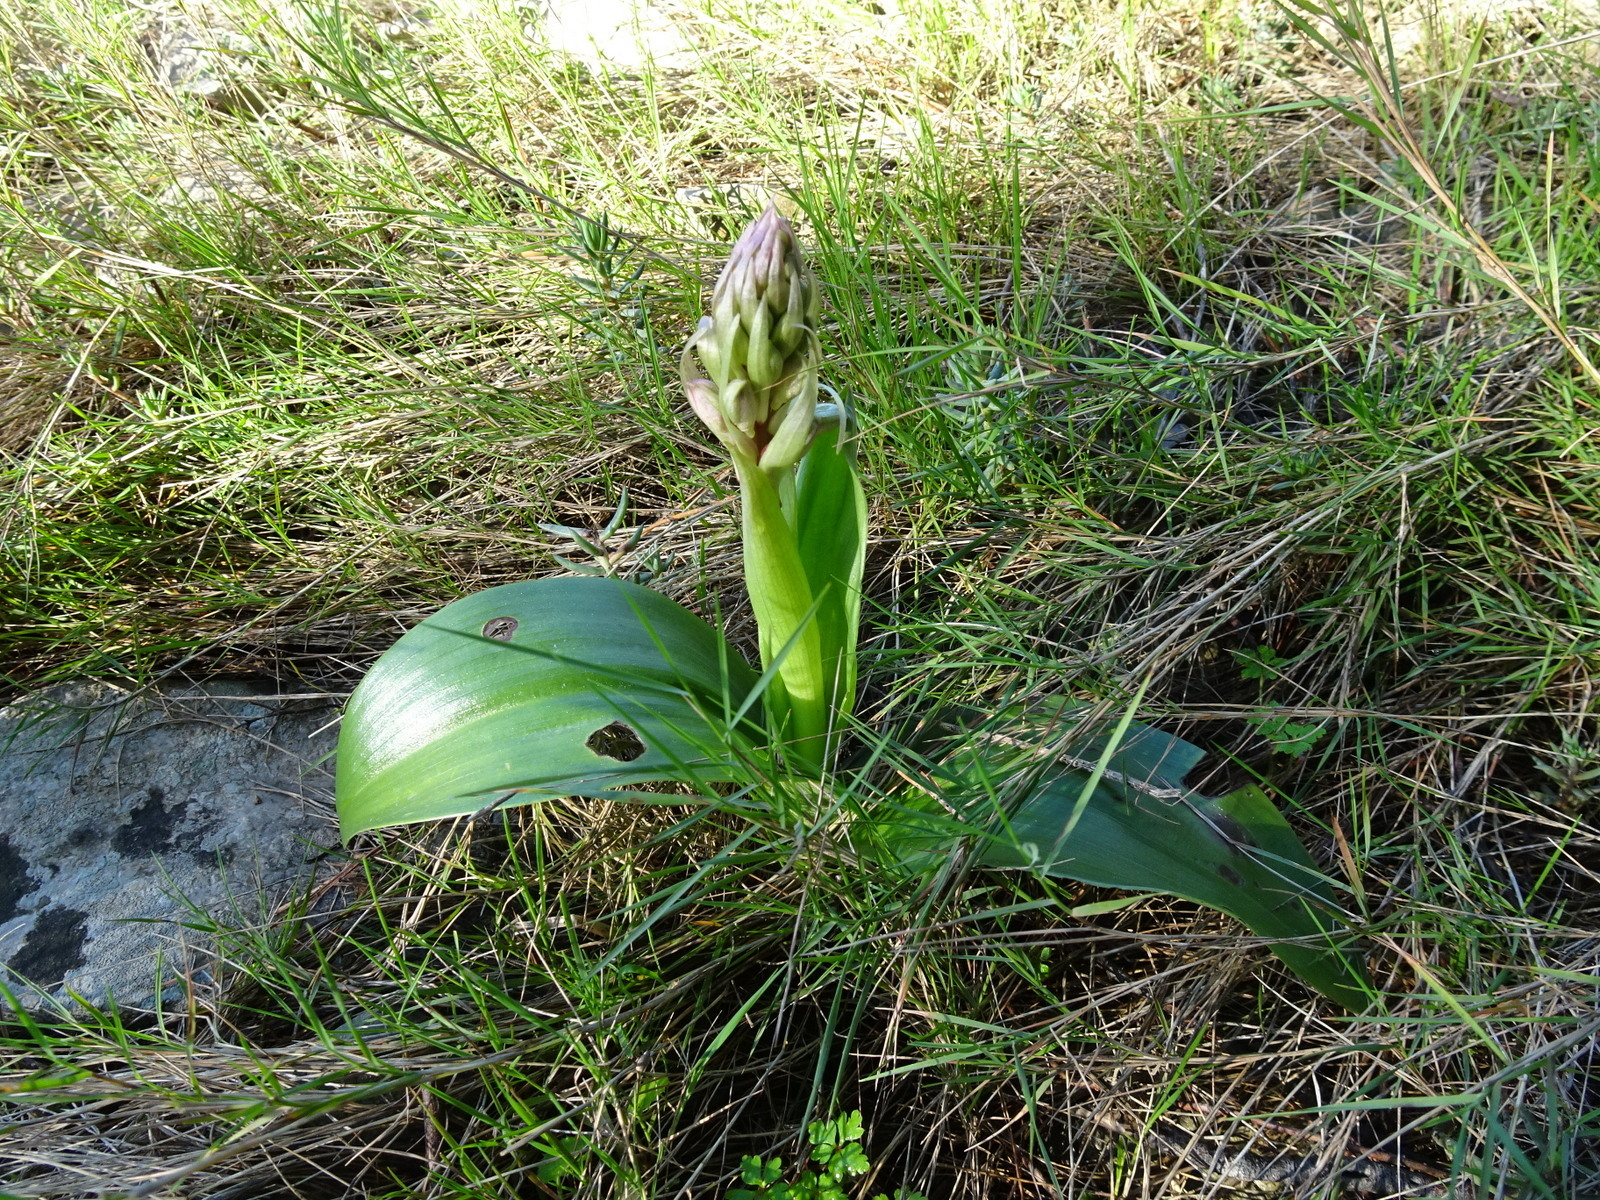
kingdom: Plantae
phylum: Tracheophyta
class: Liliopsida
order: Asparagales
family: Orchidaceae
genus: Himantoglossum
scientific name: Himantoglossum robertianum
